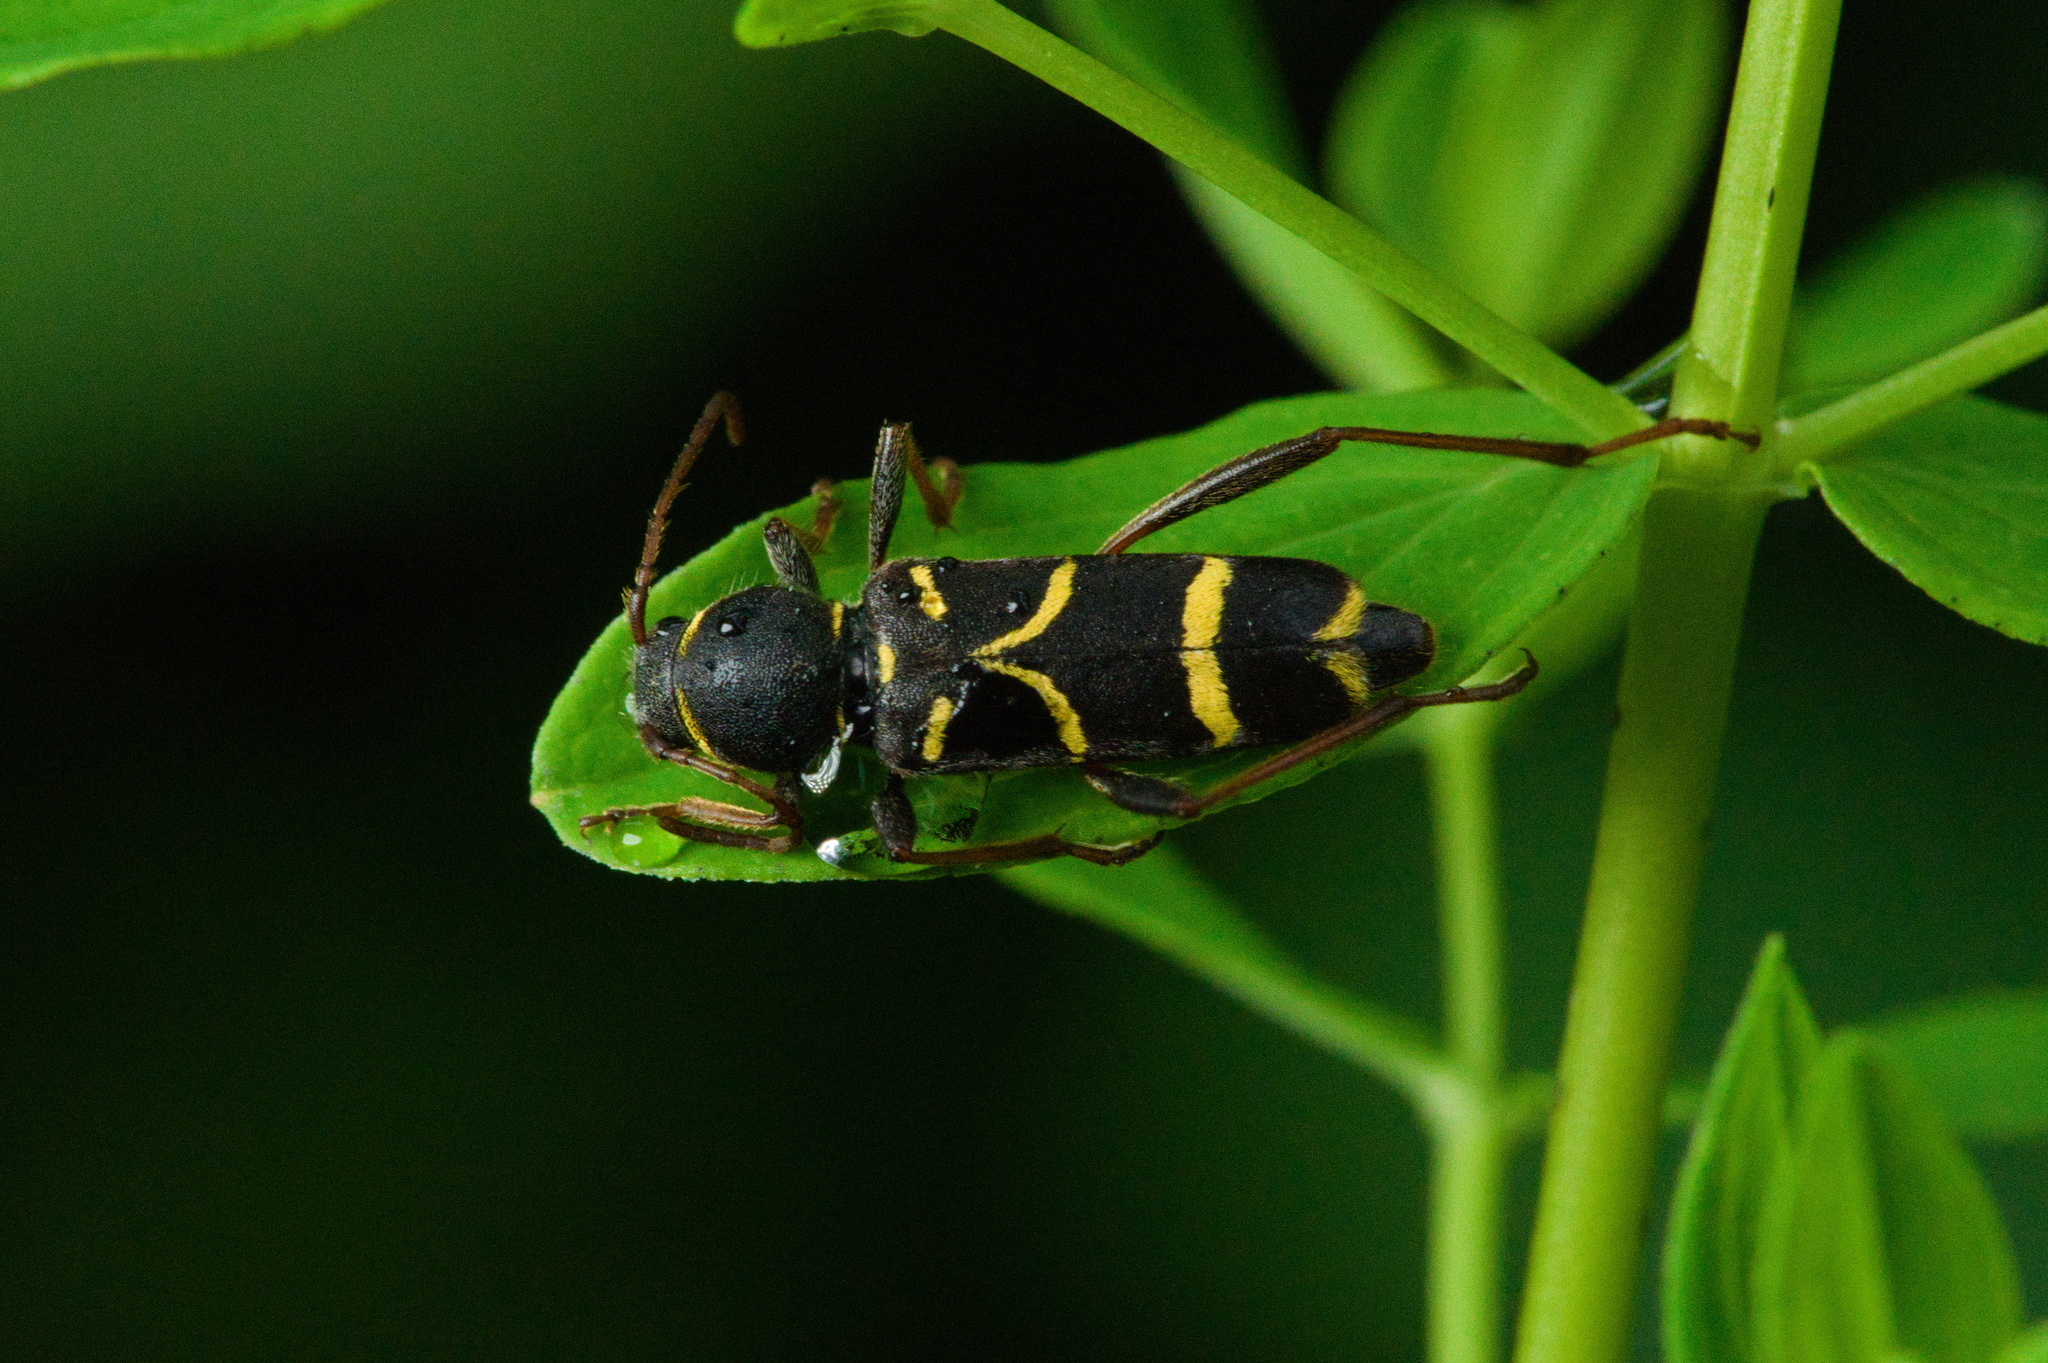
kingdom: Animalia
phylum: Arthropoda
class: Insecta
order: Coleoptera
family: Cerambycidae
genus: Clytus
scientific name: Clytus lama
